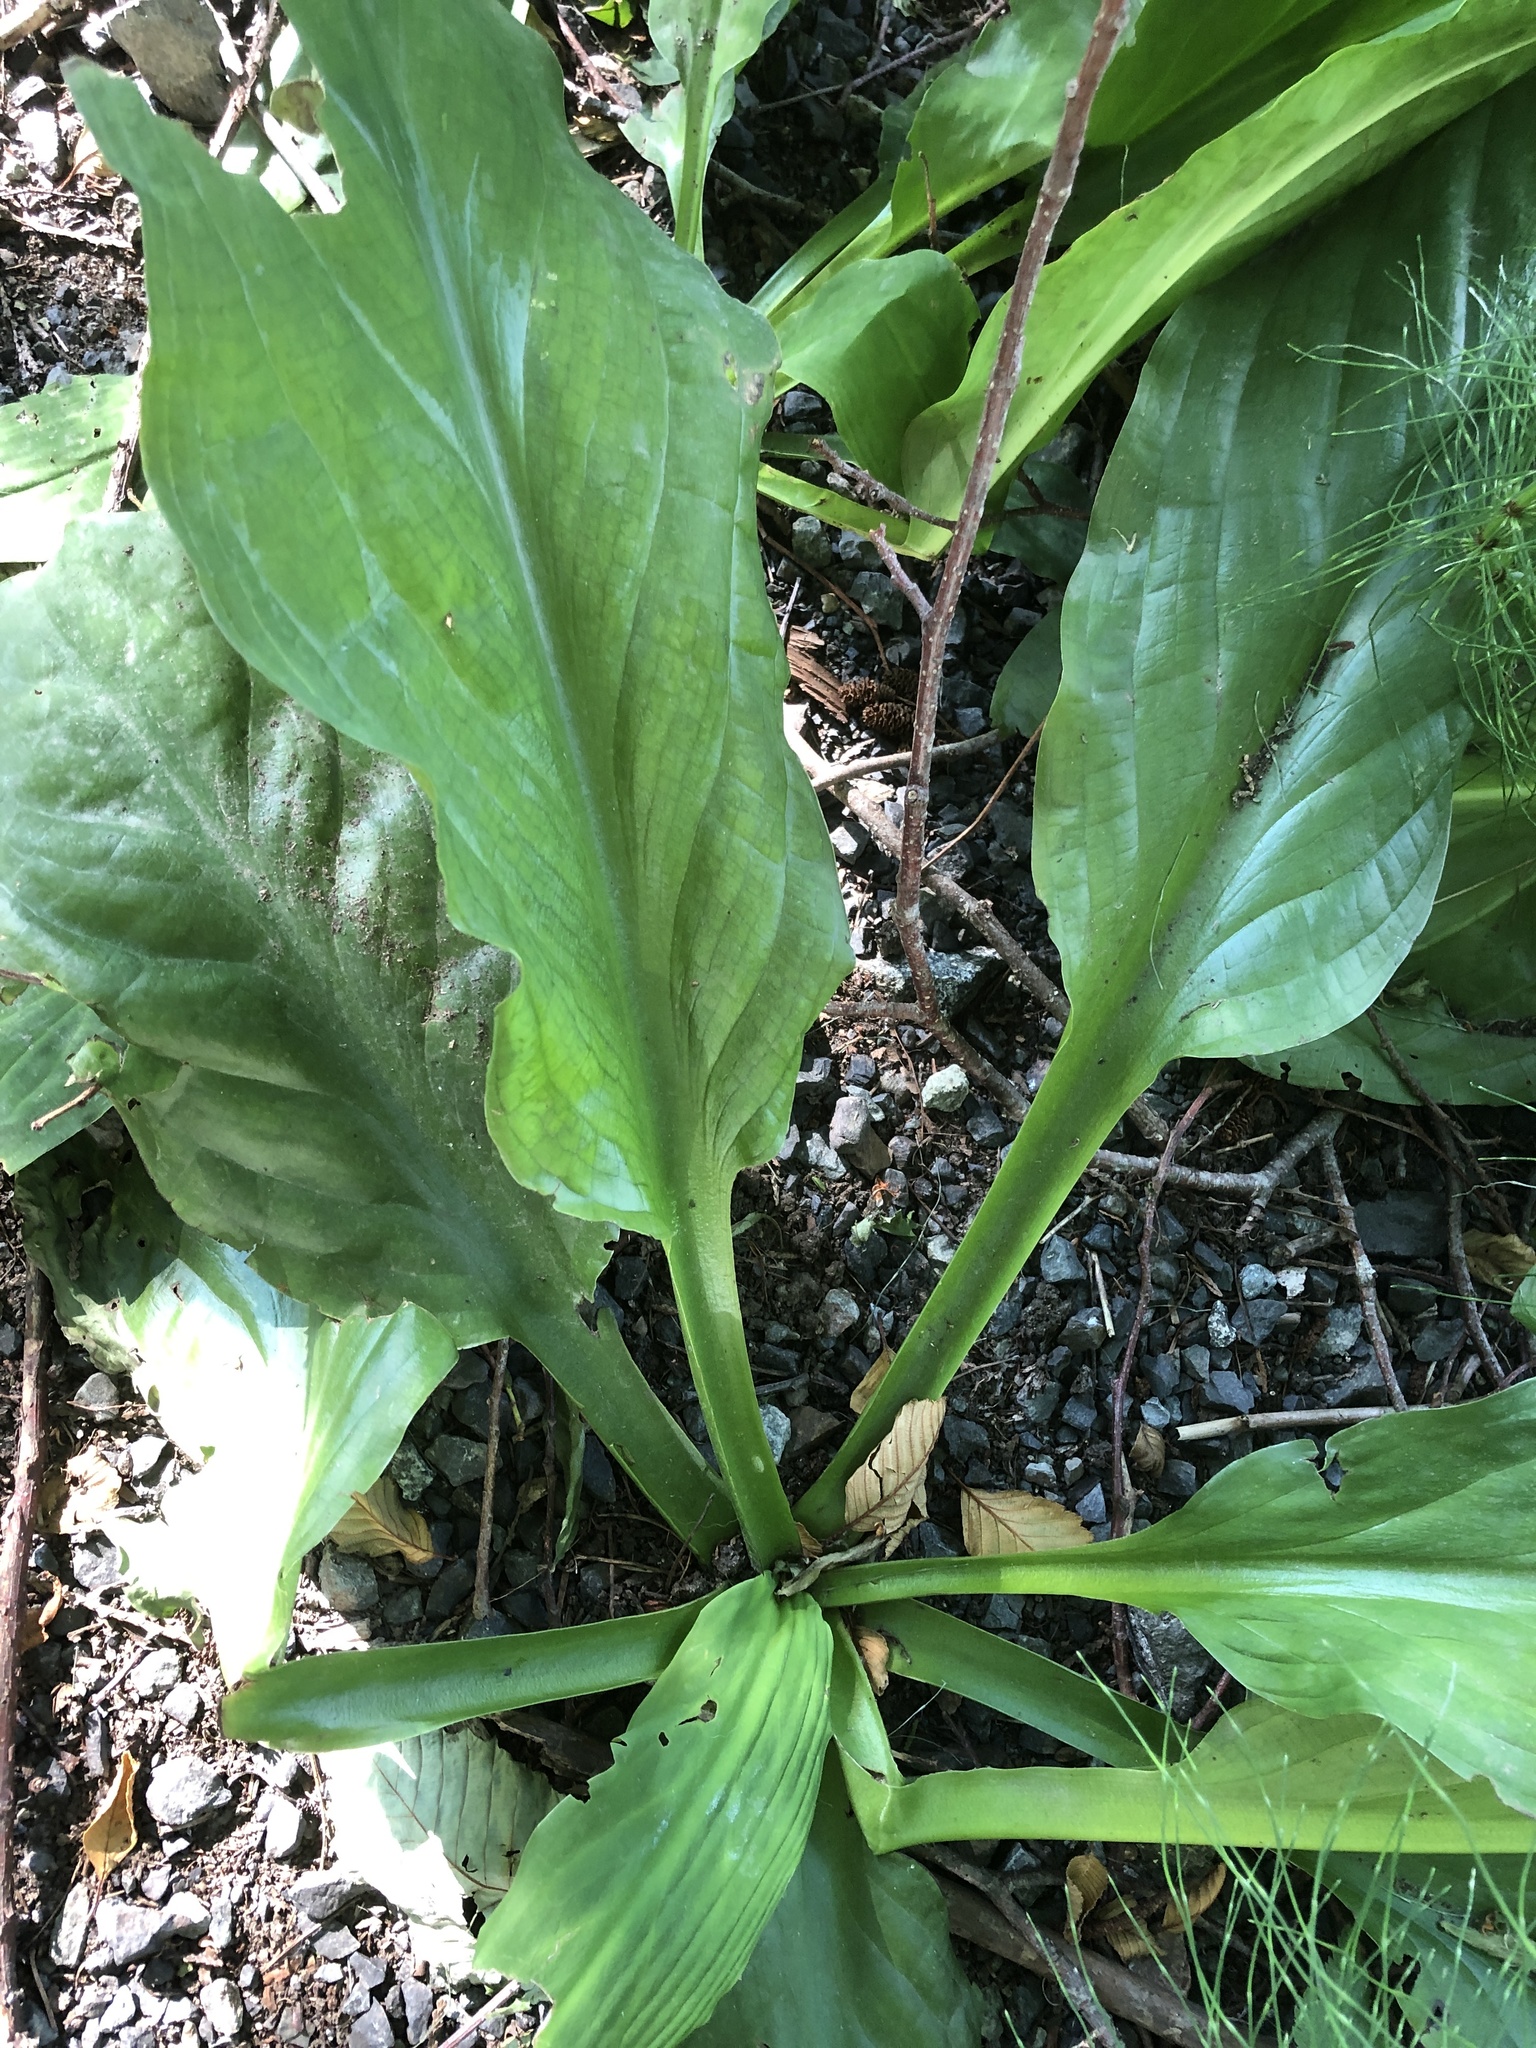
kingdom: Plantae
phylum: Tracheophyta
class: Liliopsida
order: Alismatales
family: Araceae
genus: Lysichiton
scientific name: Lysichiton americanus
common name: American skunk cabbage
